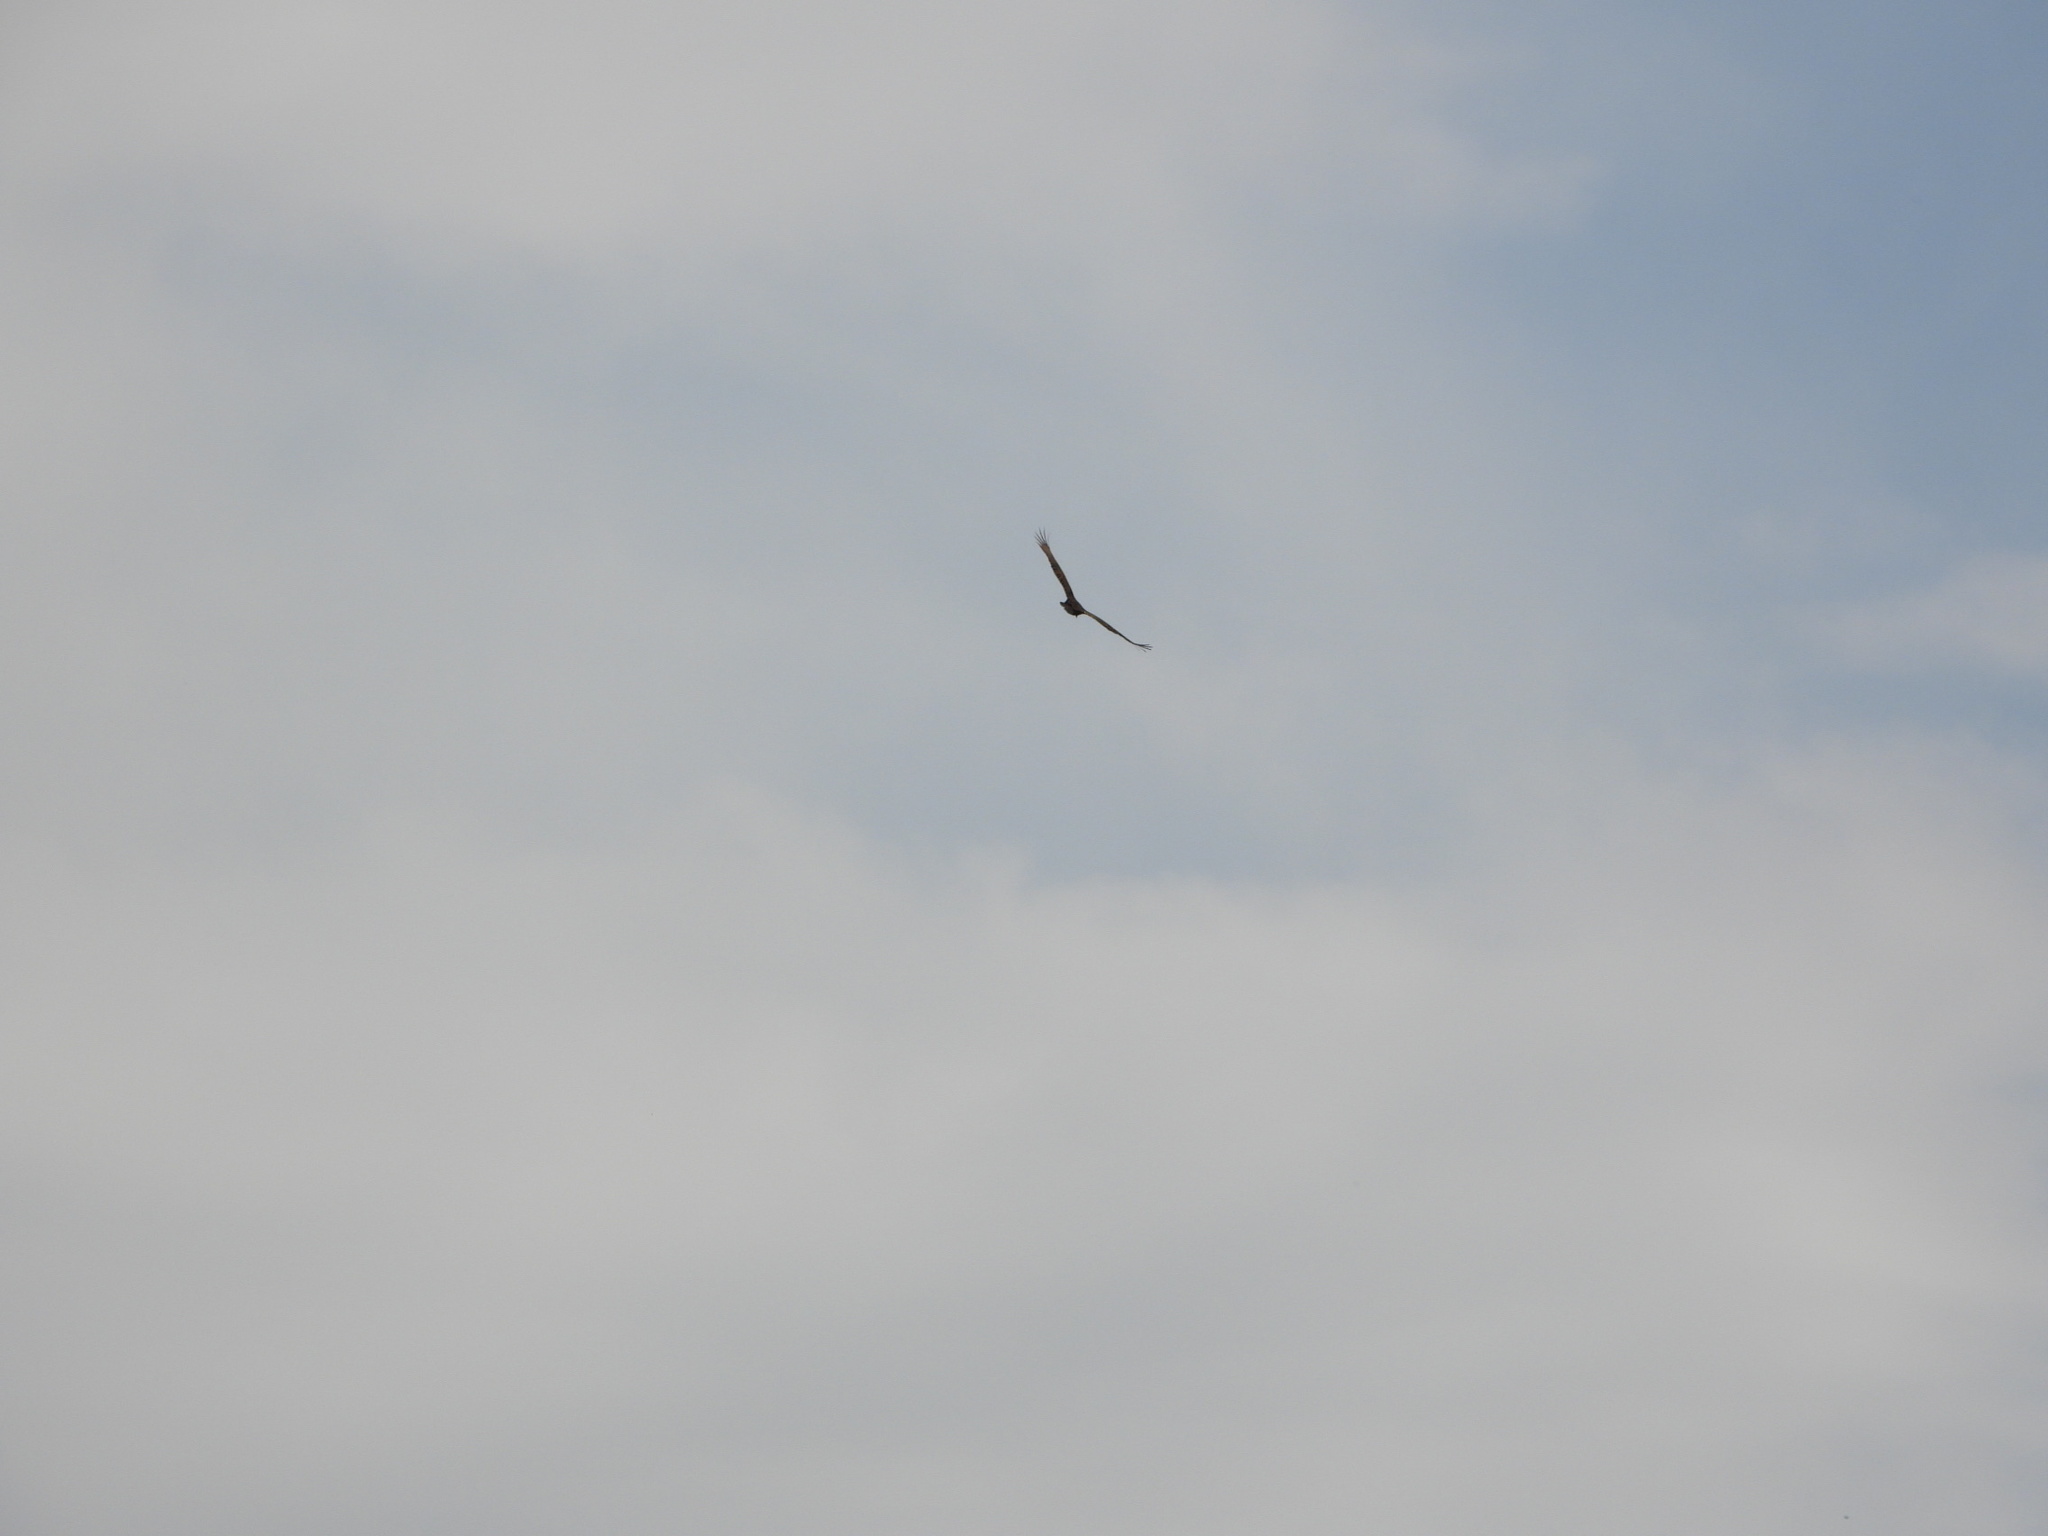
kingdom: Animalia
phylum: Chordata
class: Aves
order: Accipitriformes
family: Cathartidae
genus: Cathartes
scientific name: Cathartes aura
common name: Turkey vulture
